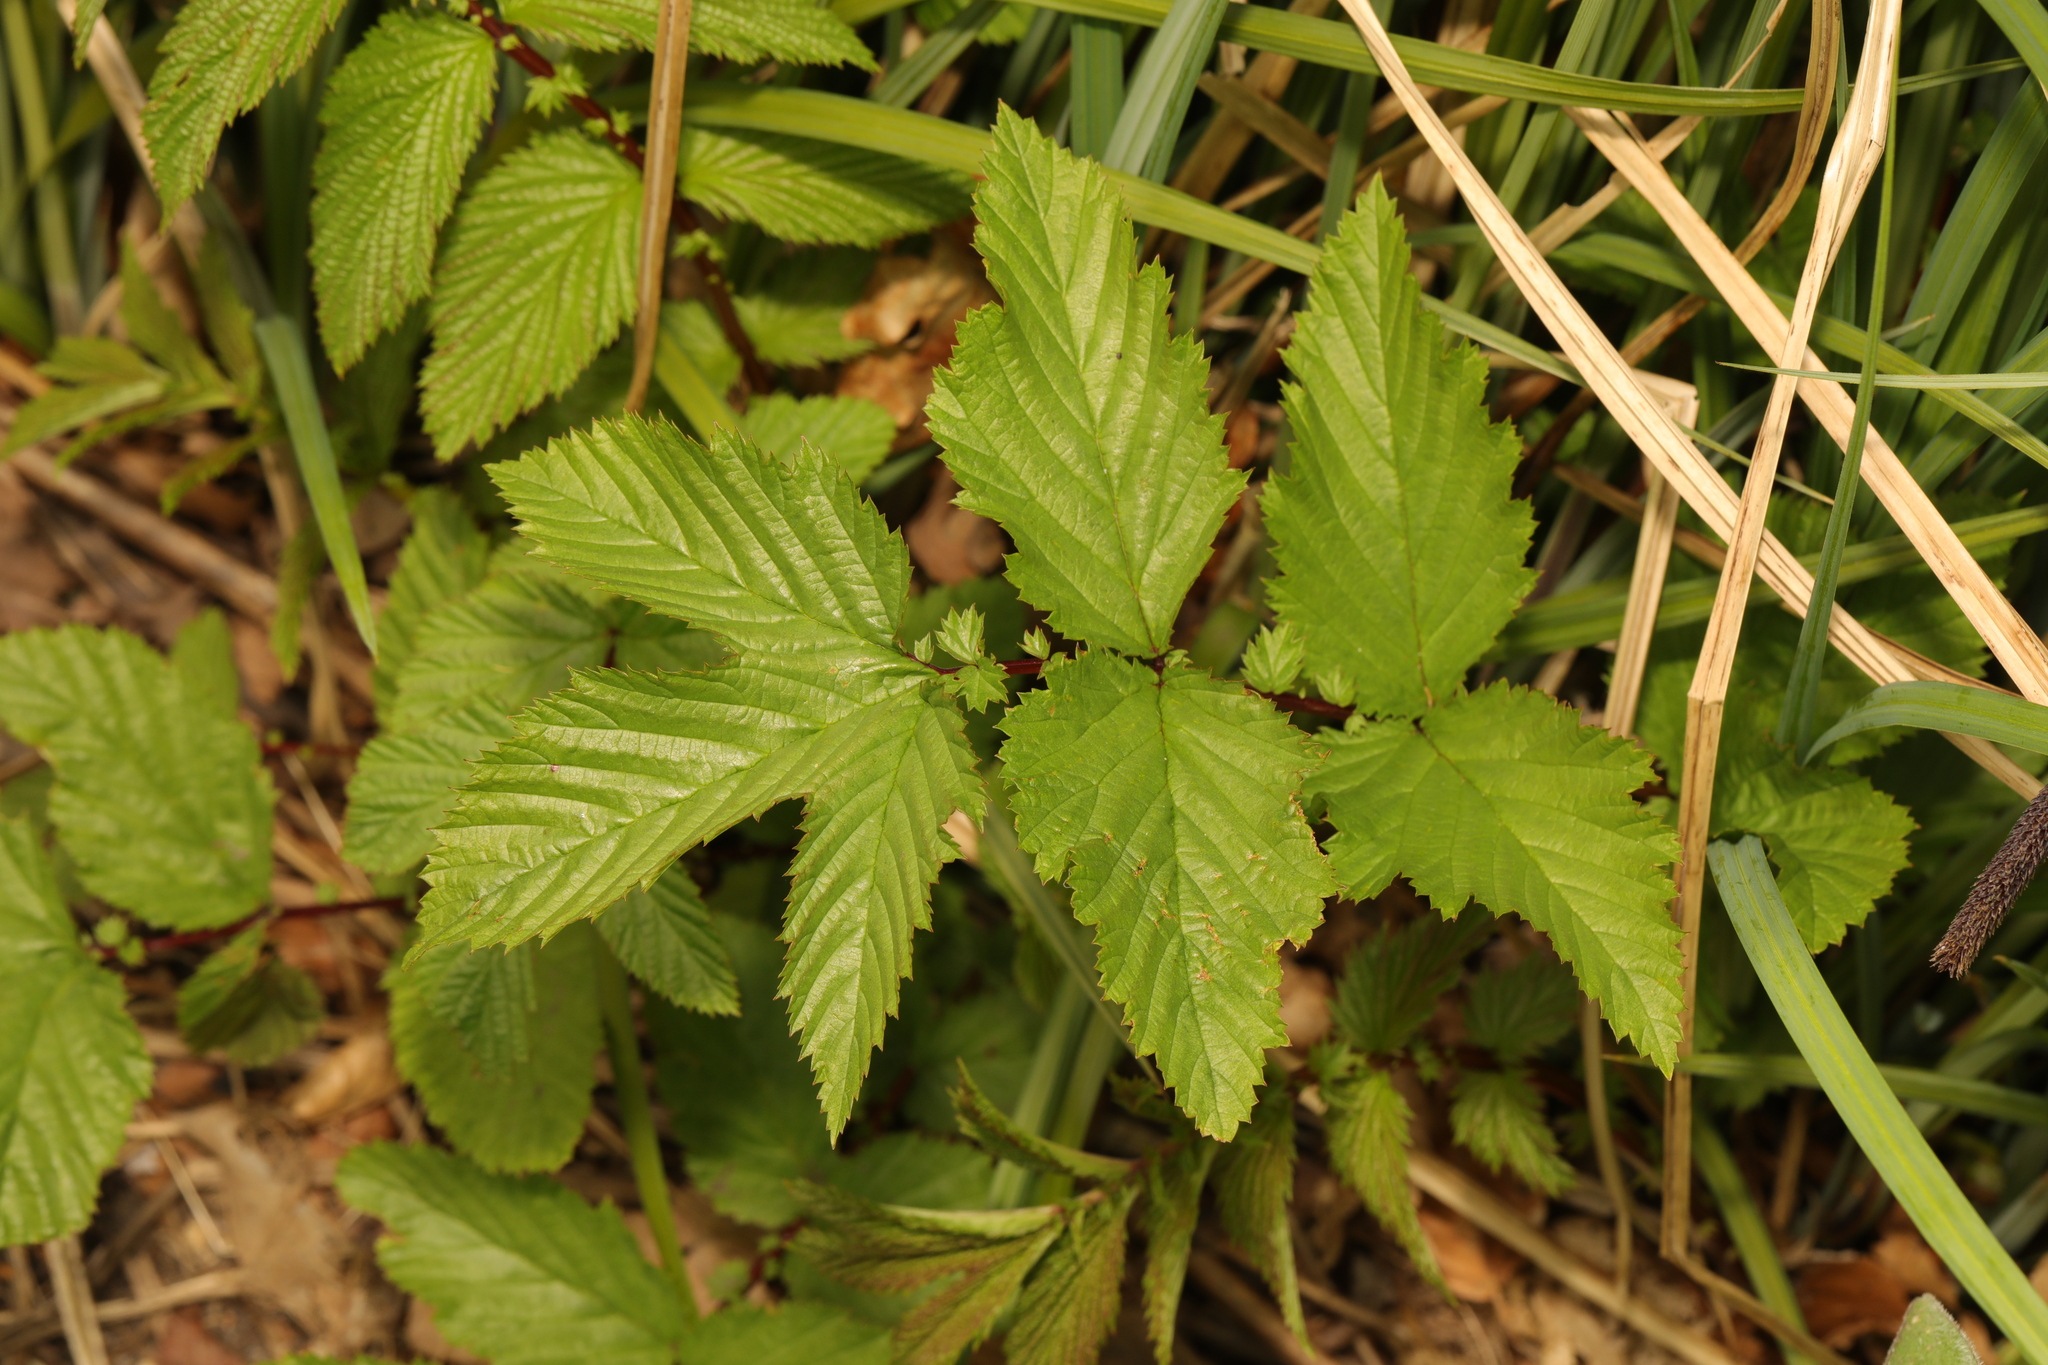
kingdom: Plantae
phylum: Tracheophyta
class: Magnoliopsida
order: Rosales
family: Rosaceae
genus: Filipendula
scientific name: Filipendula ulmaria
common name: Meadowsweet
